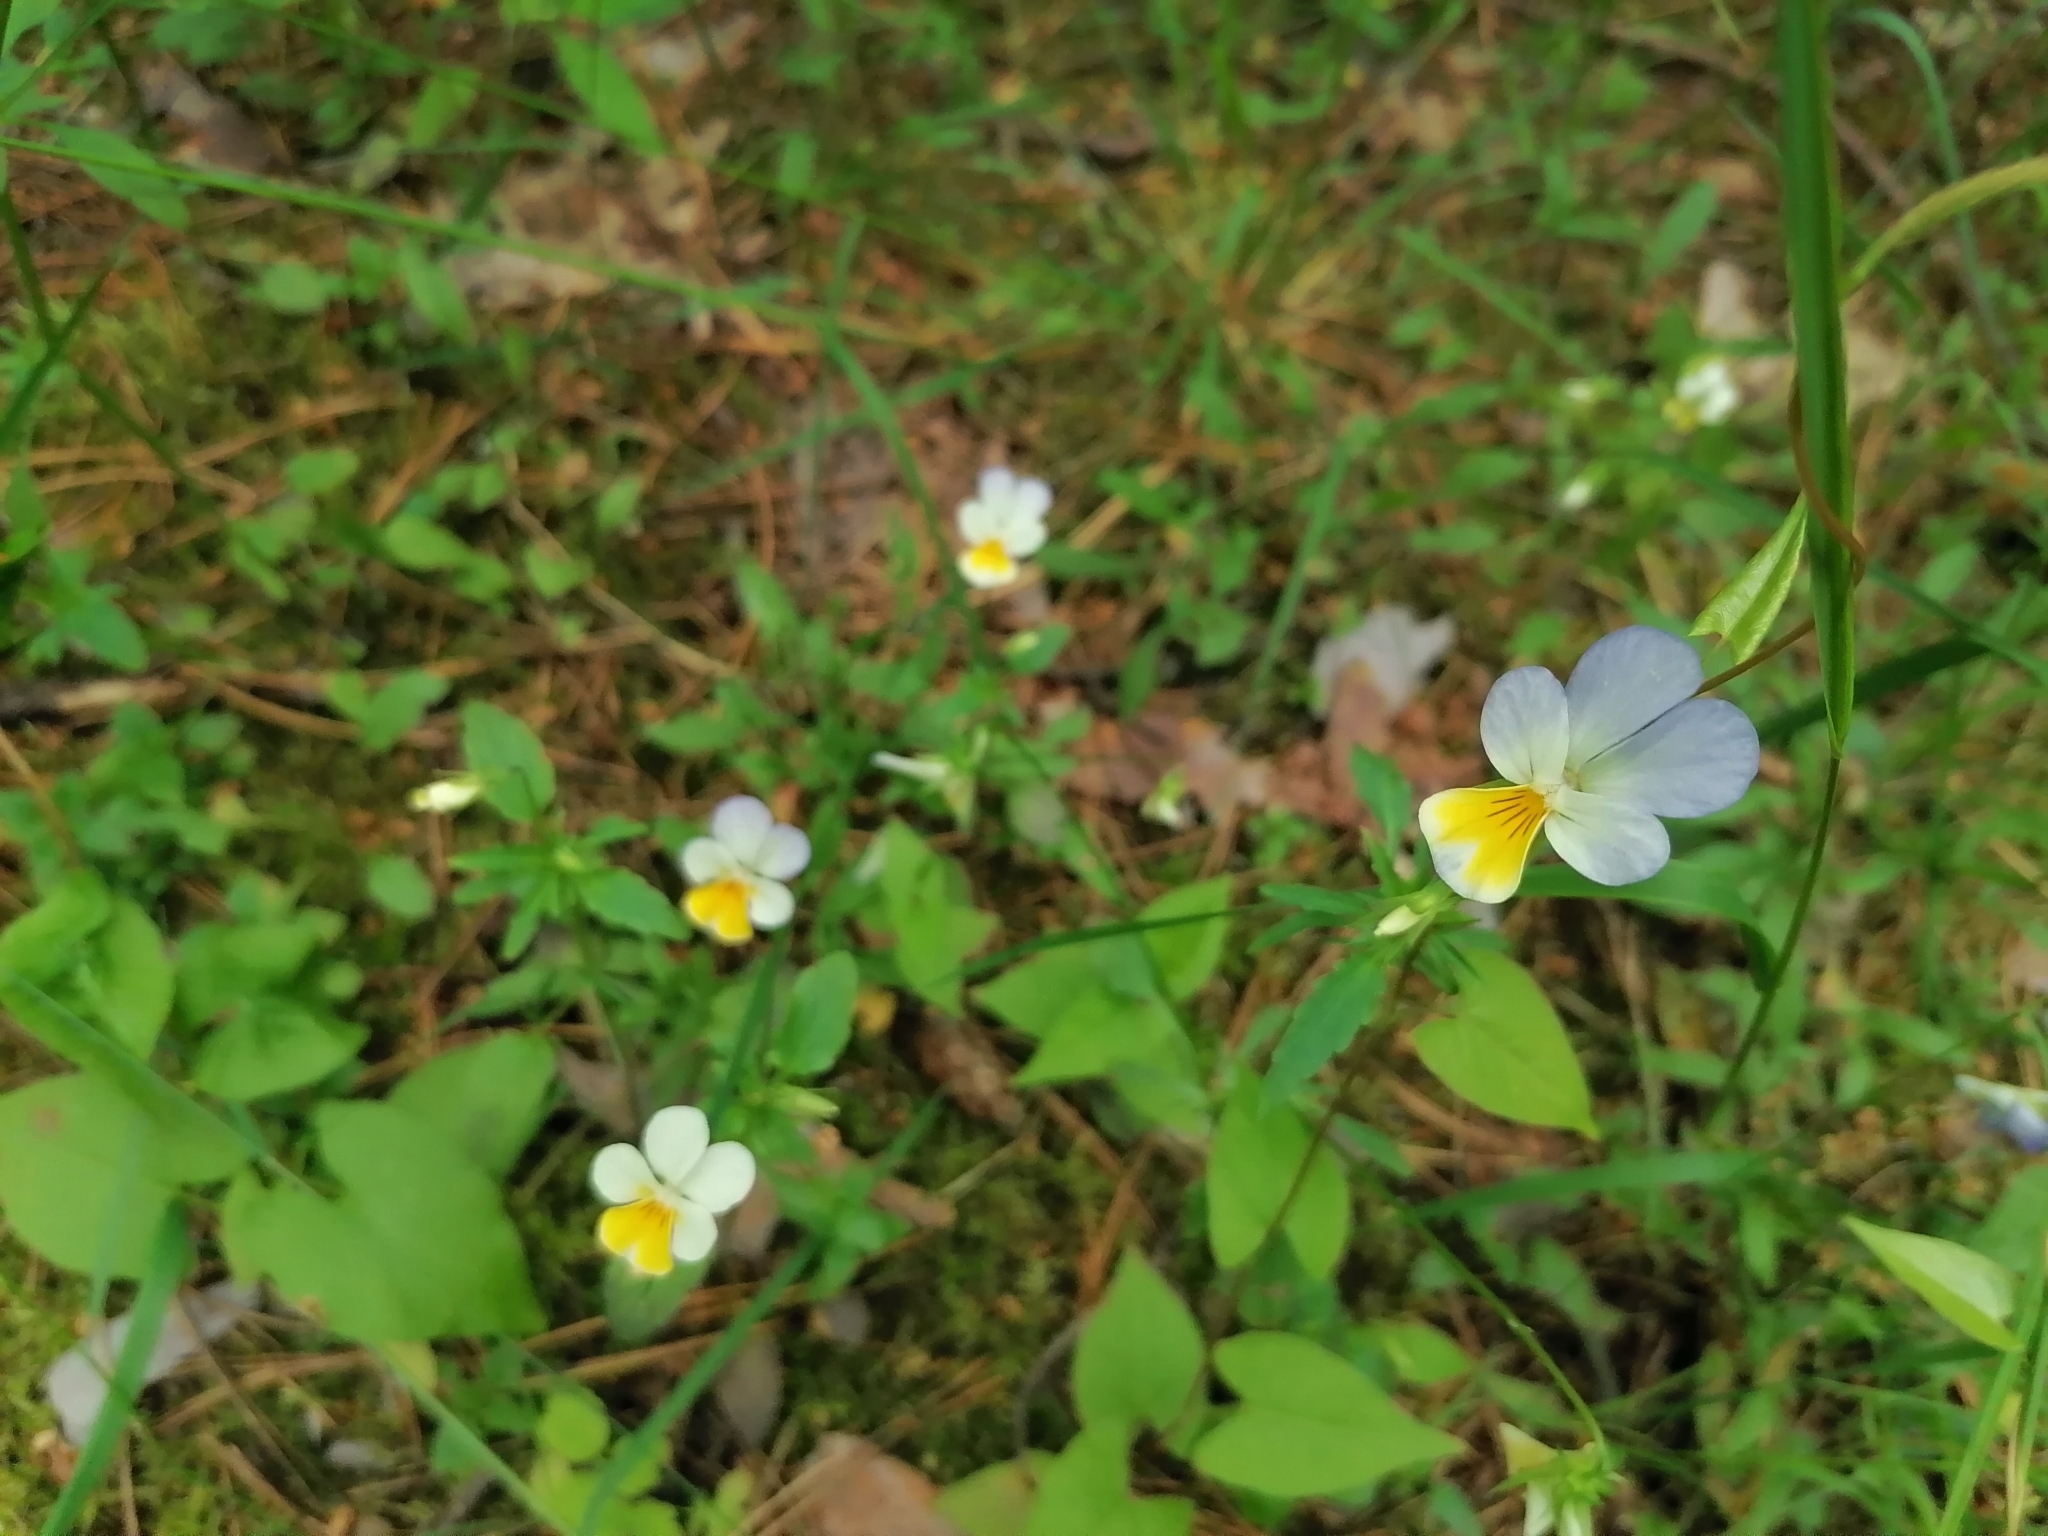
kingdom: Plantae
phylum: Tracheophyta
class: Magnoliopsida
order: Malpighiales
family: Violaceae
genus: Viola
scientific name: Viola tricolor
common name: Pansy
